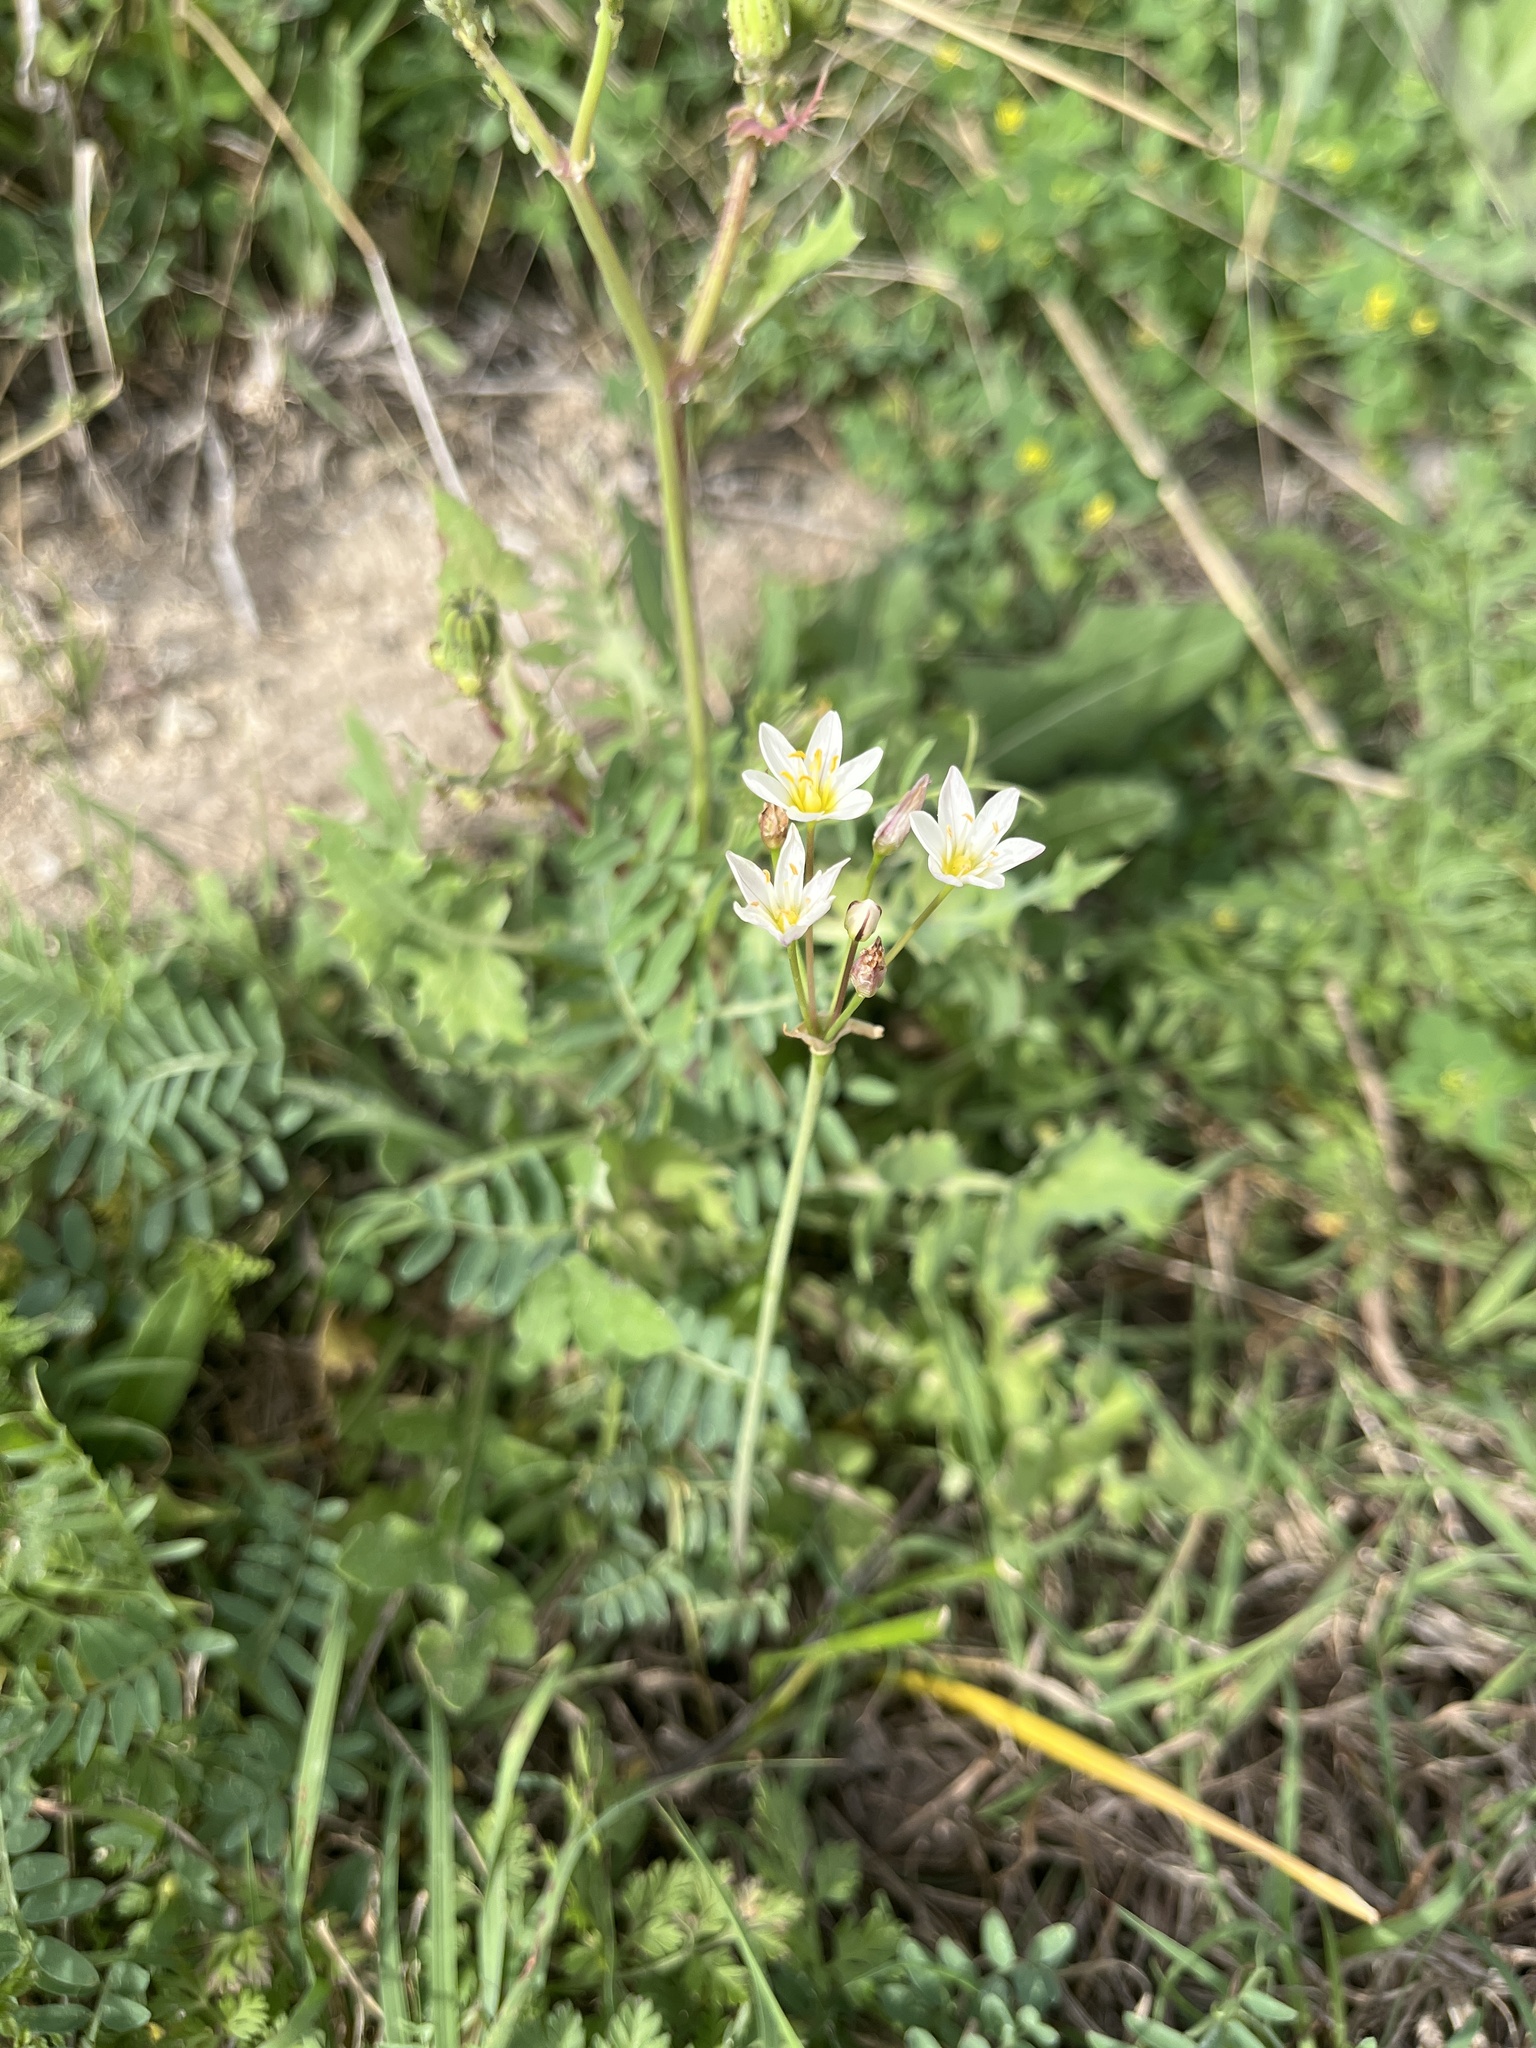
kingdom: Plantae
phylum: Tracheophyta
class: Liliopsida
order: Asparagales
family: Amaryllidaceae
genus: Nothoscordum
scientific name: Nothoscordum bivalve
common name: Crow-poison
